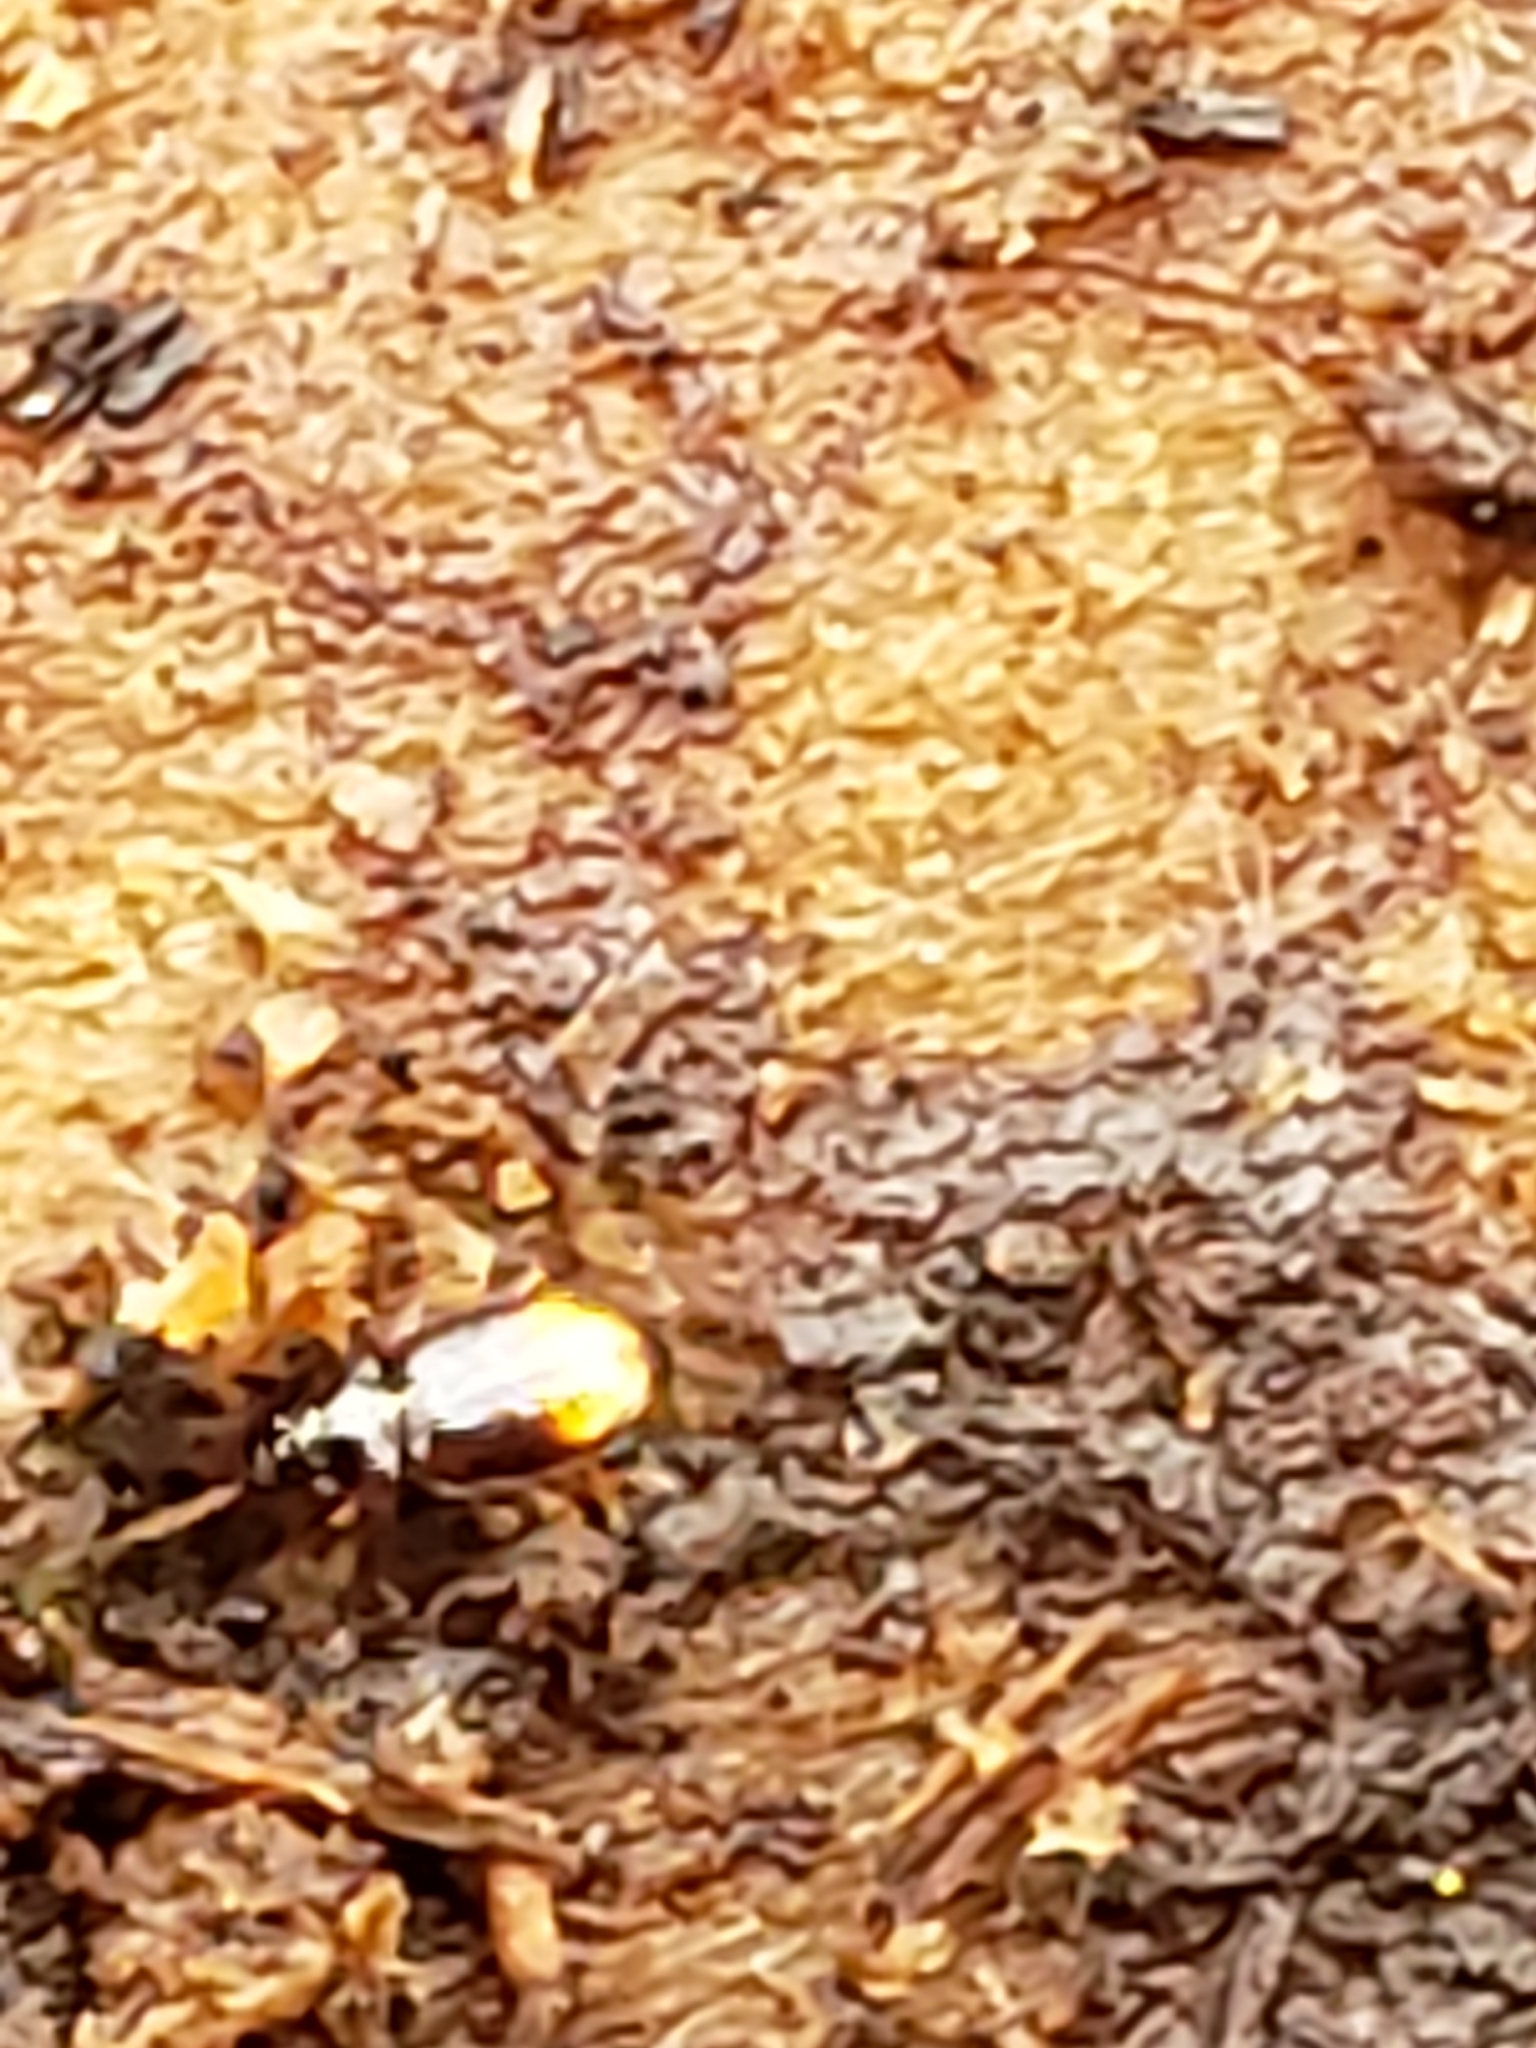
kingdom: Animalia
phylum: Arthropoda
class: Insecta
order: Coleoptera
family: Carabidae
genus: Mioptachys
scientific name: Mioptachys flavicauda
